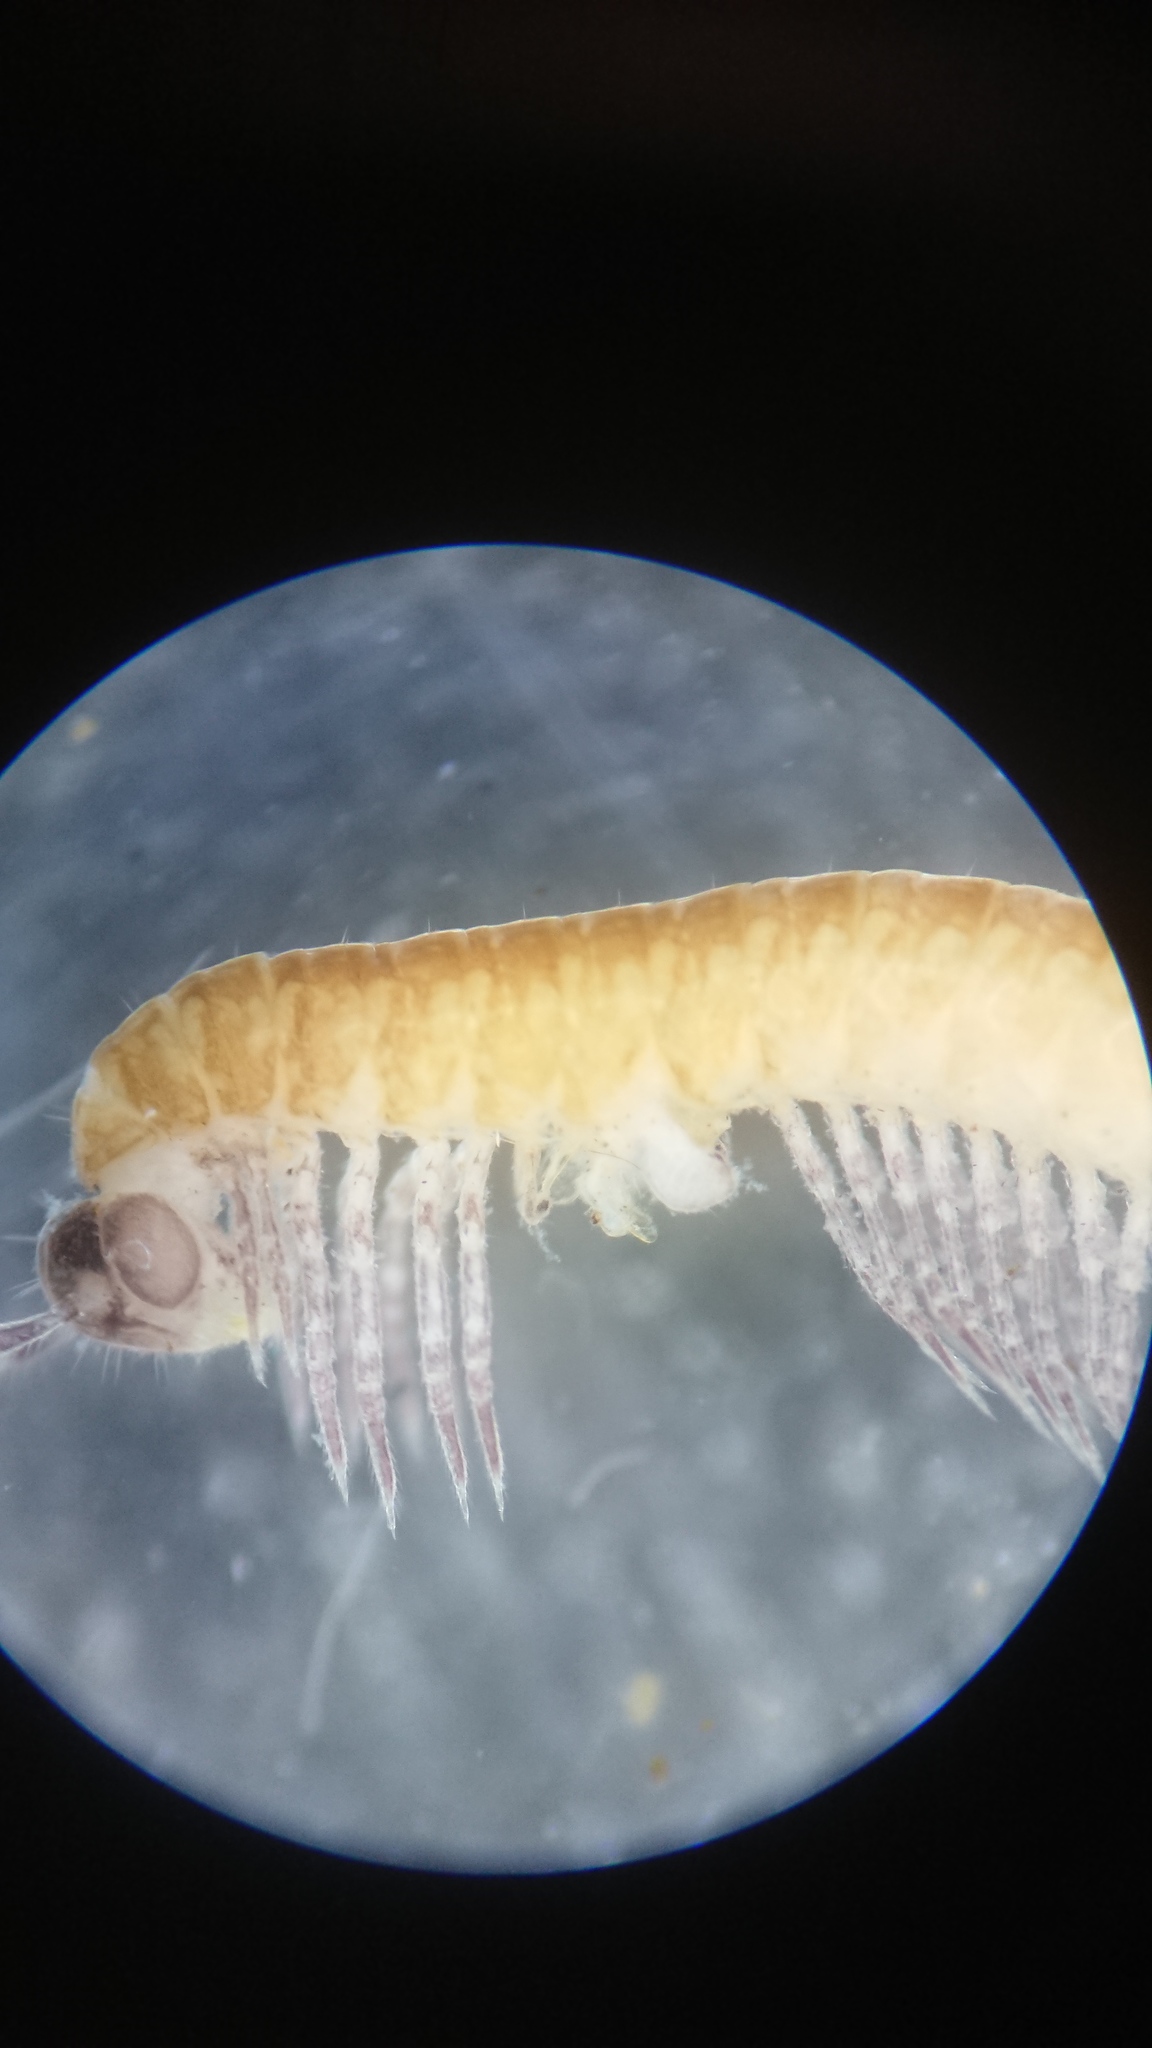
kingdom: Animalia
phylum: Arthropoda
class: Diplopoda
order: Chordeumatida
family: Chordeumatidae
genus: Chordeuma
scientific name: Chordeuma proximum
